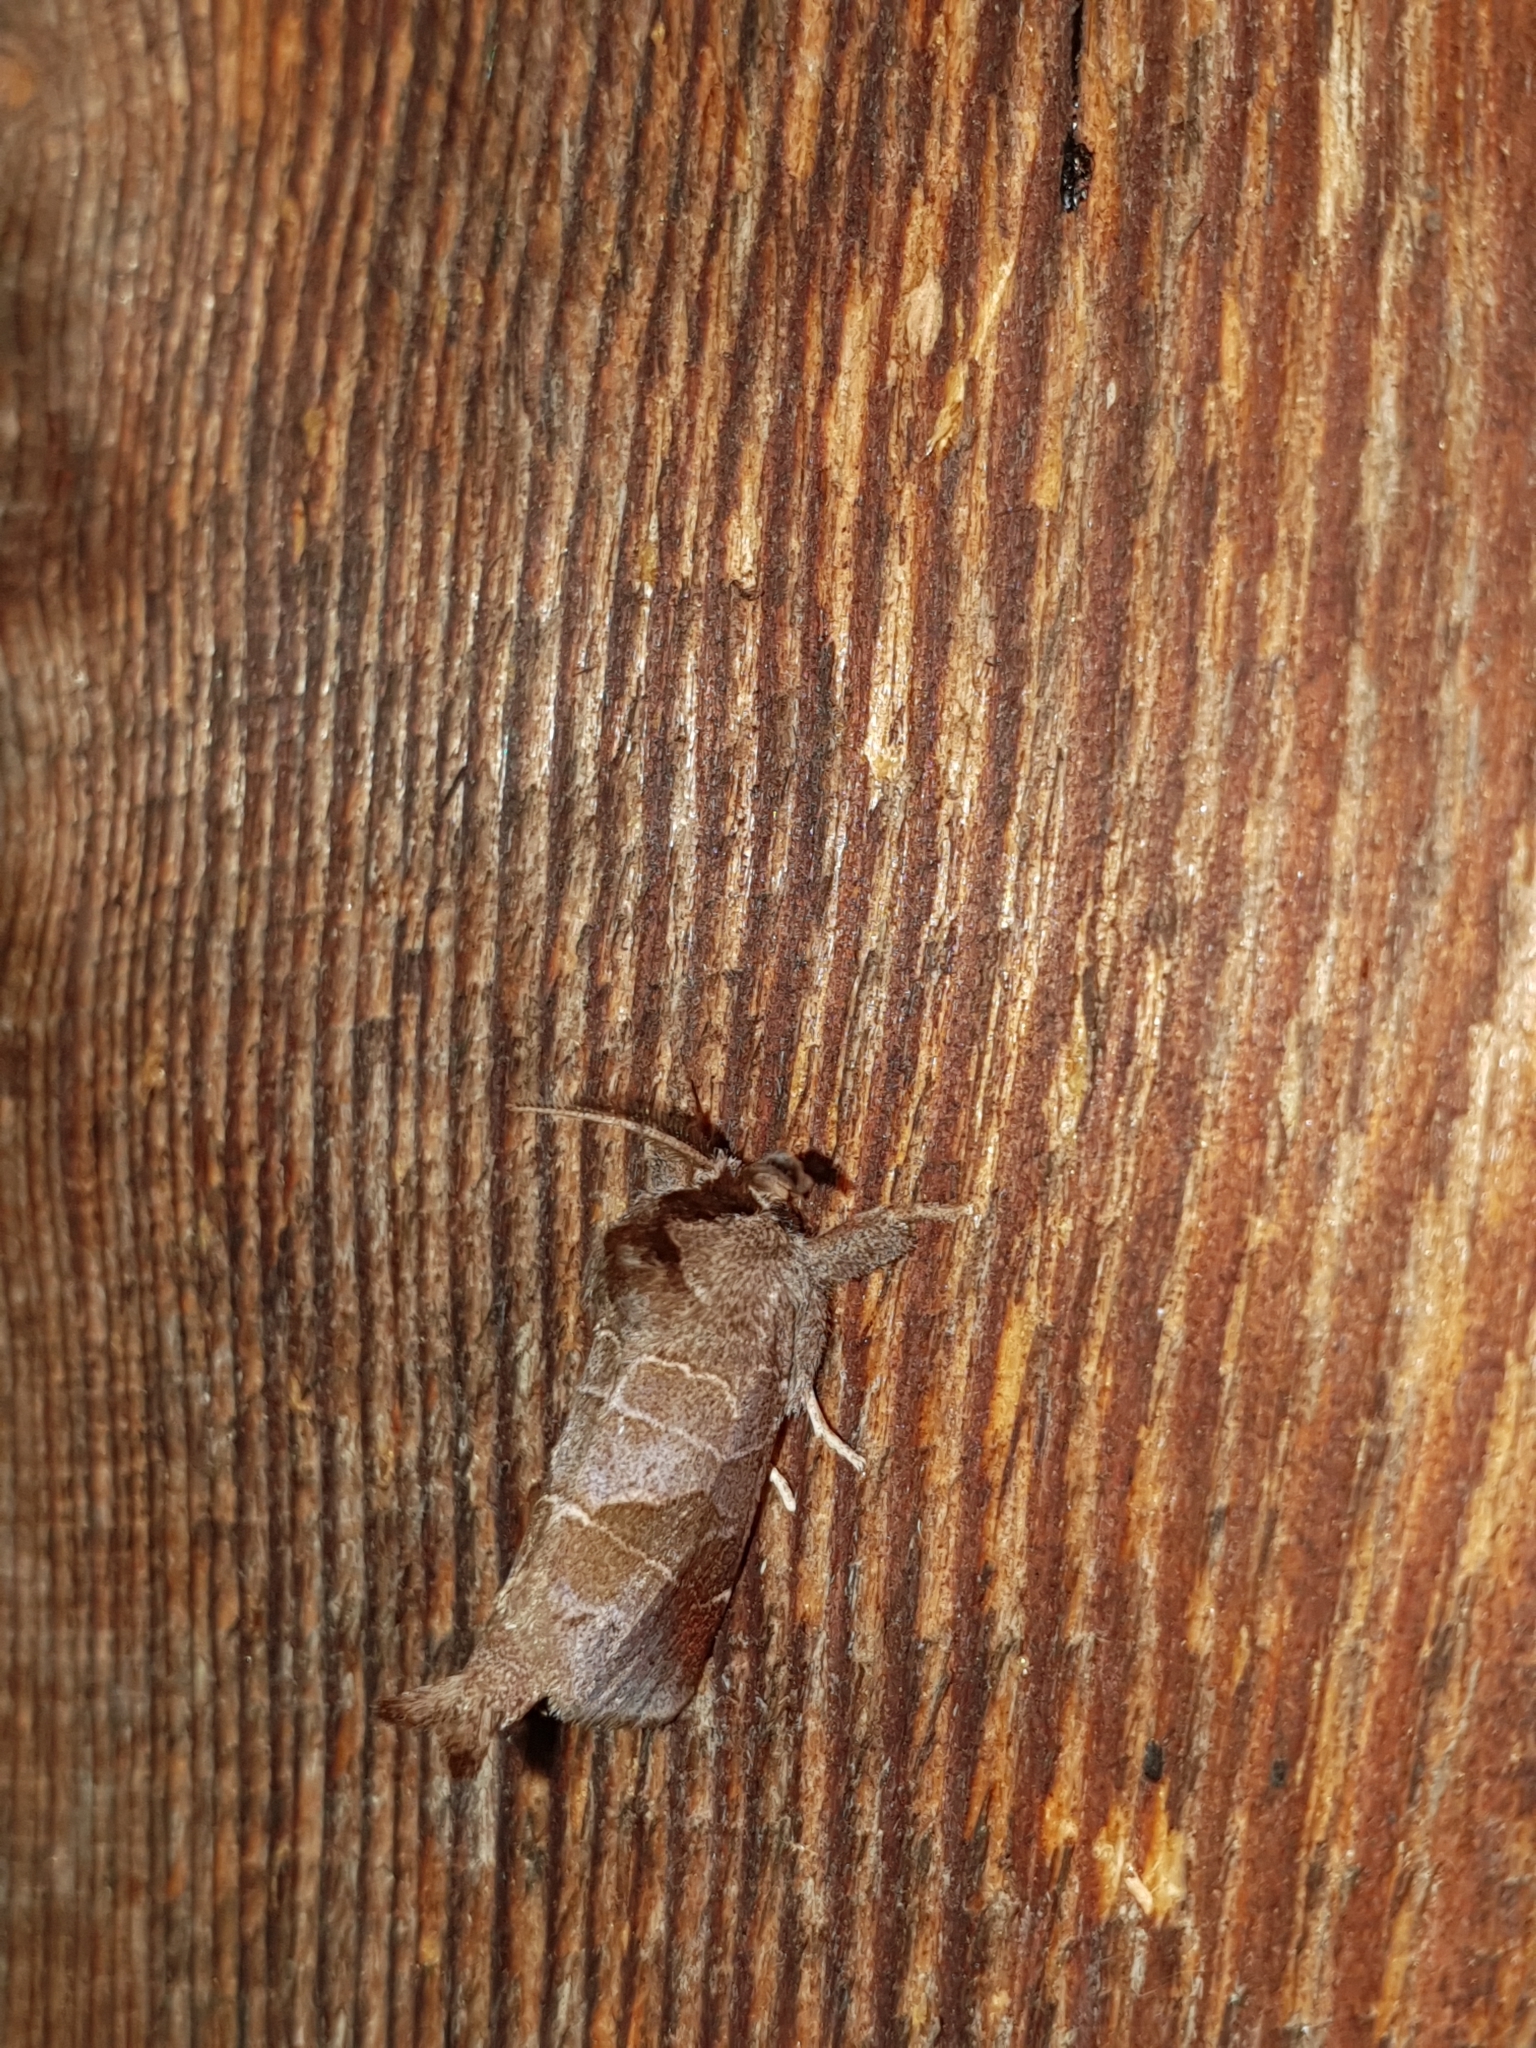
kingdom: Animalia
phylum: Arthropoda
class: Insecta
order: Lepidoptera
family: Notodontidae
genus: Clostera
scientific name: Clostera pigra
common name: Small chocolate-tip
